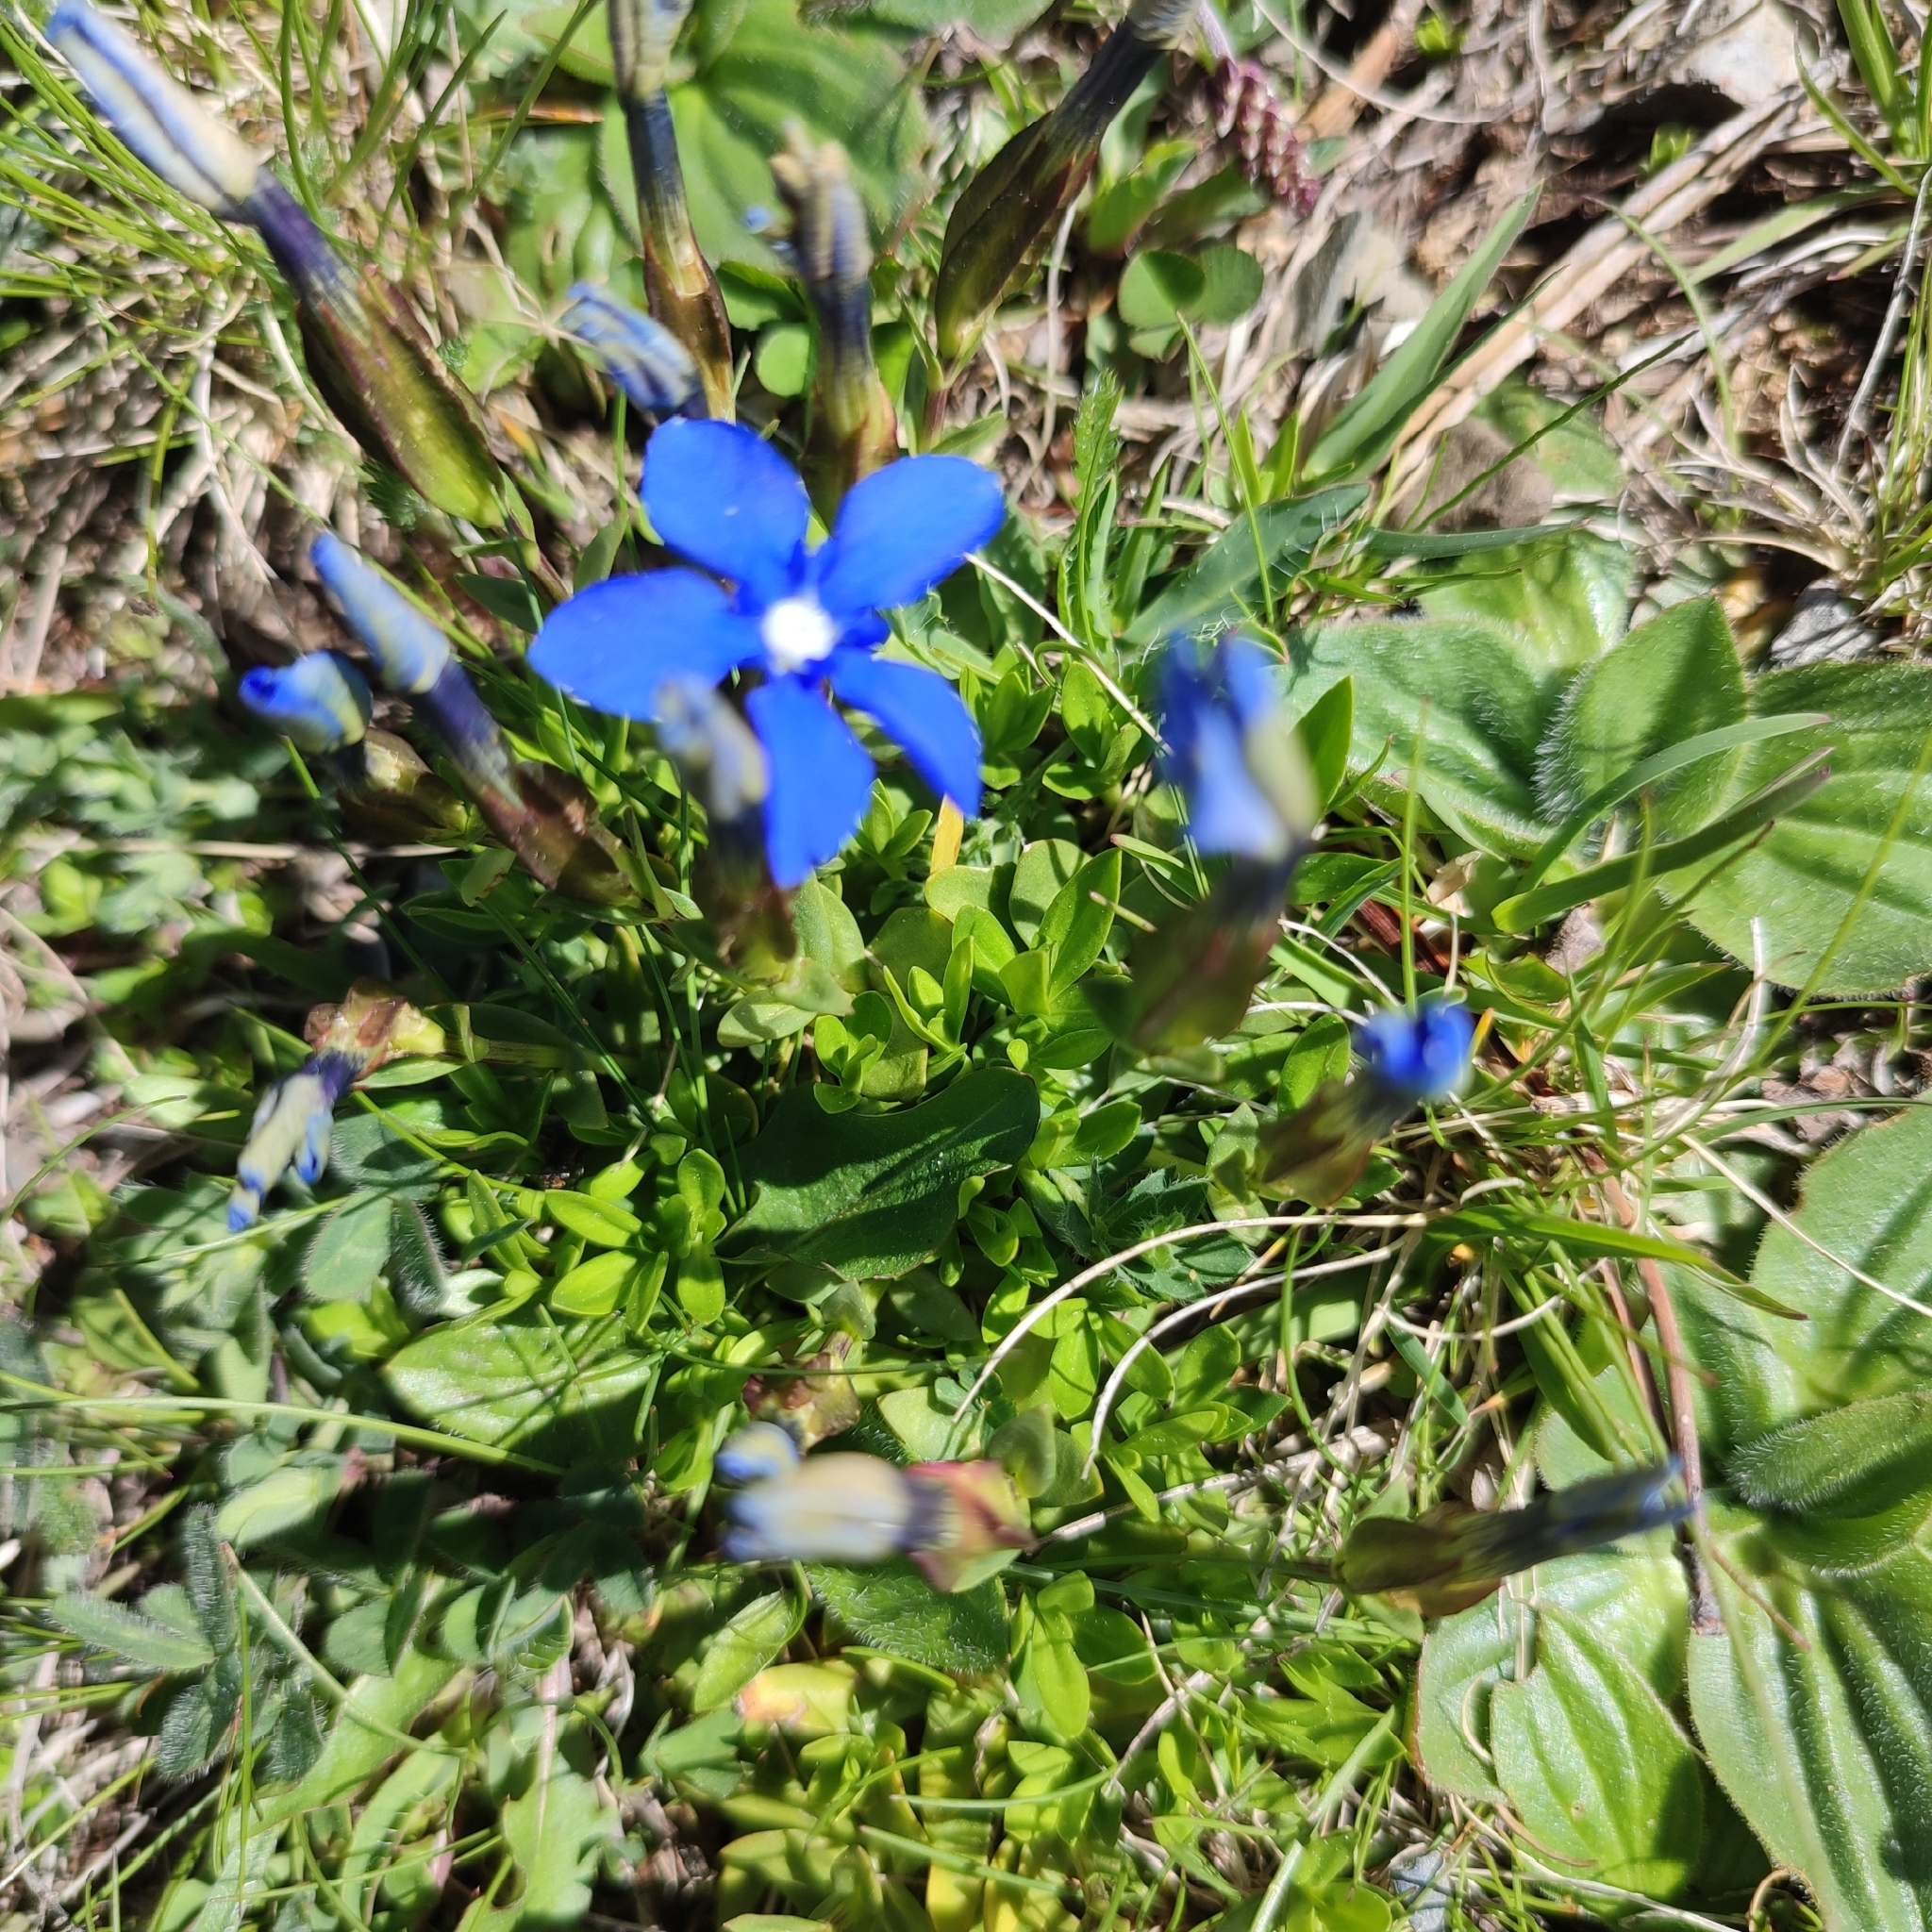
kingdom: Plantae
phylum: Tracheophyta
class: Magnoliopsida
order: Gentianales
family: Gentianaceae
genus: Gentiana
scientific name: Gentiana verna
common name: Spring gentian
